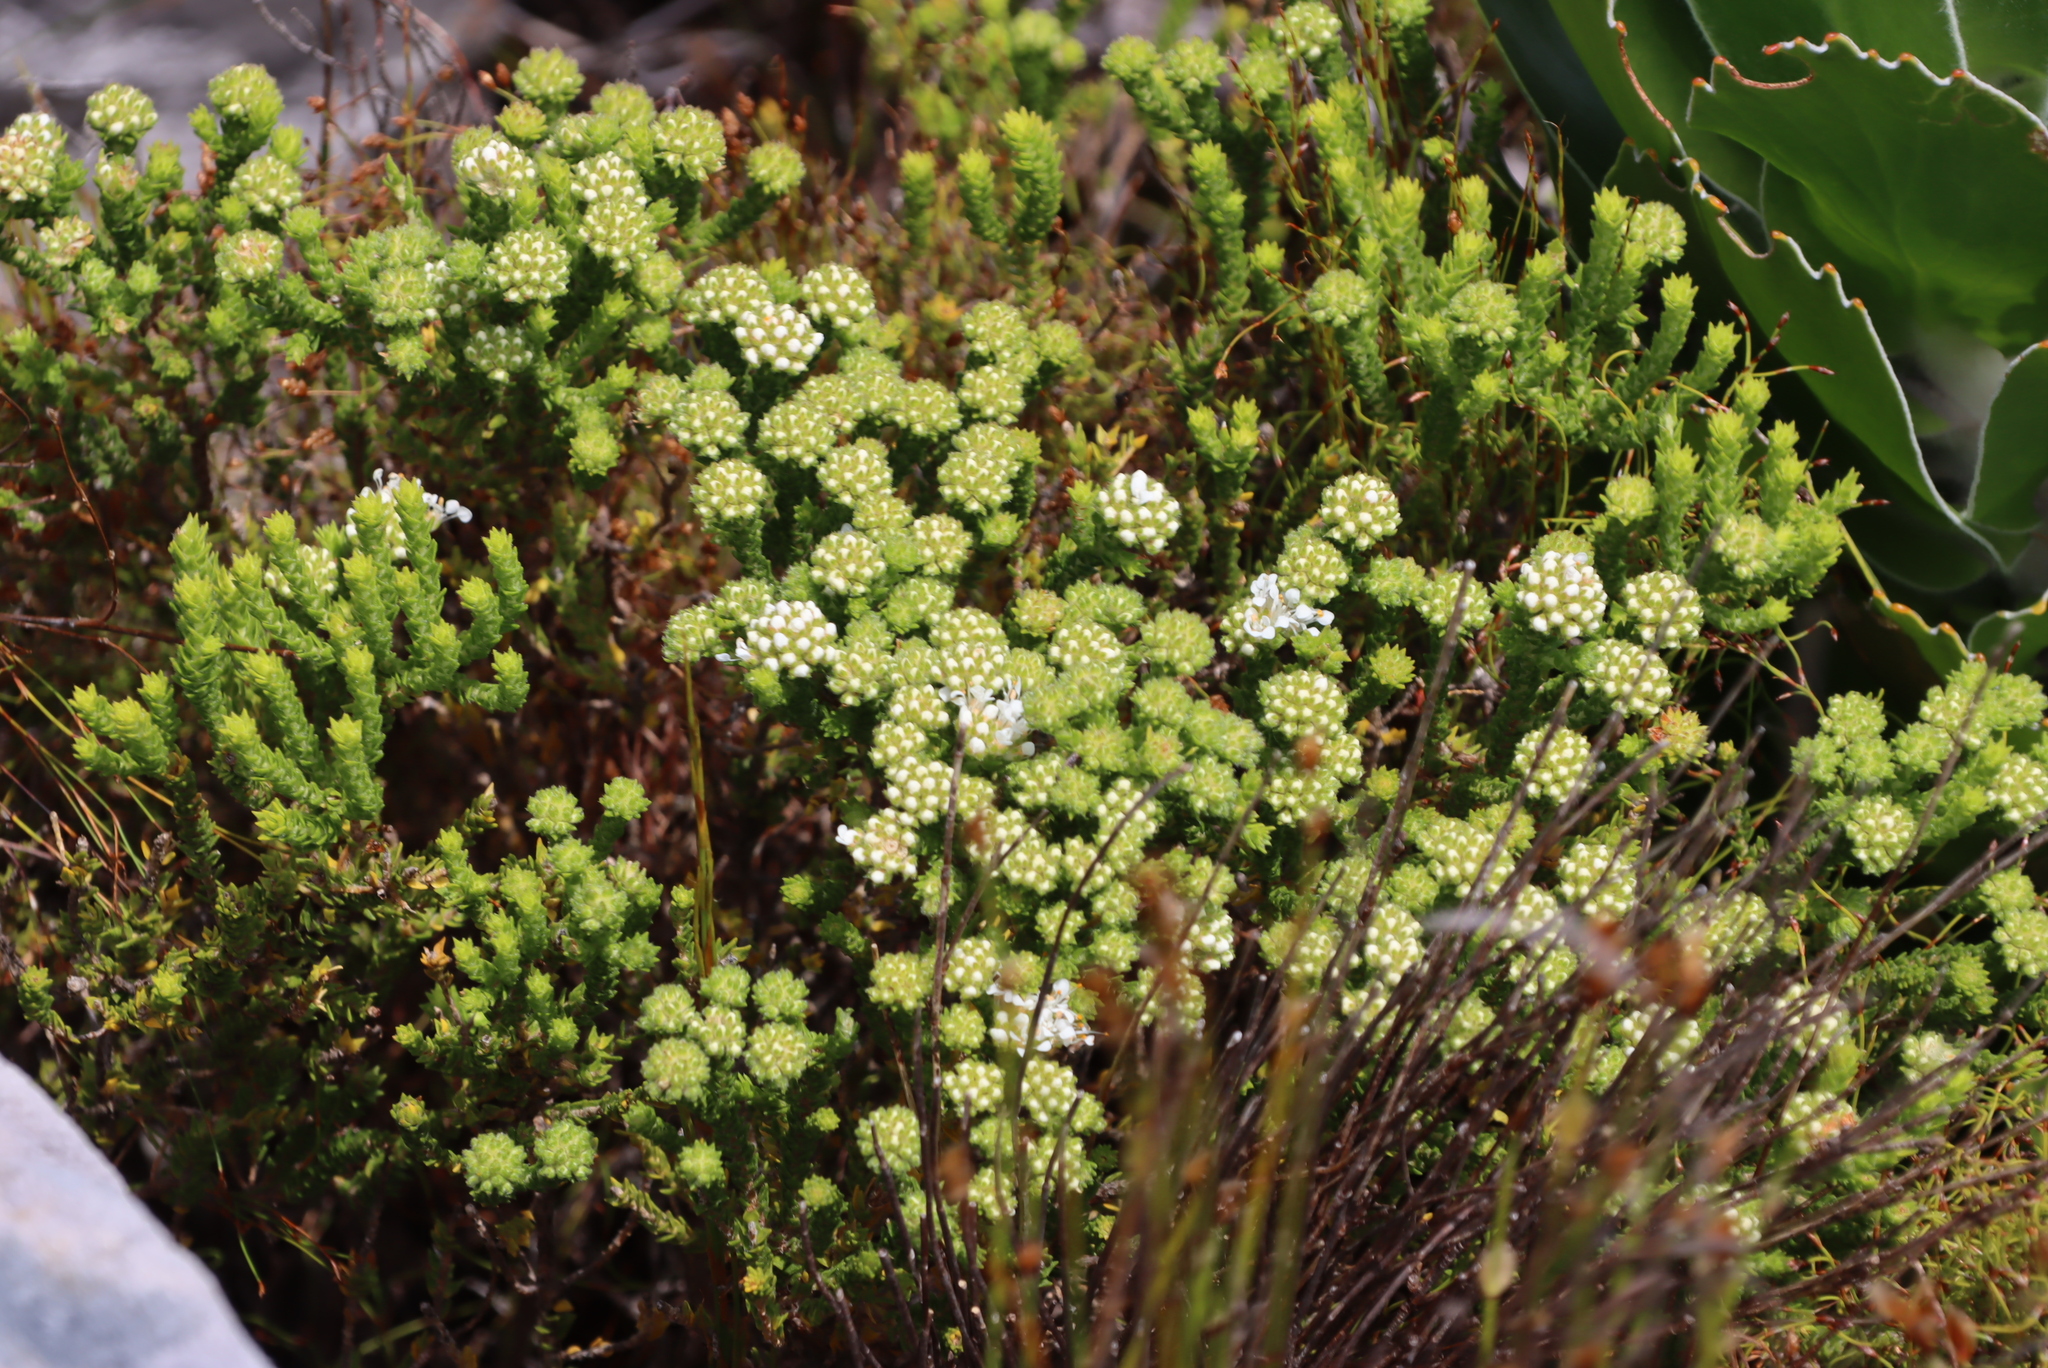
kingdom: Plantae
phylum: Tracheophyta
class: Magnoliopsida
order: Sapindales
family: Rutaceae
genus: Agathosma
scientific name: Agathosma imbricata
